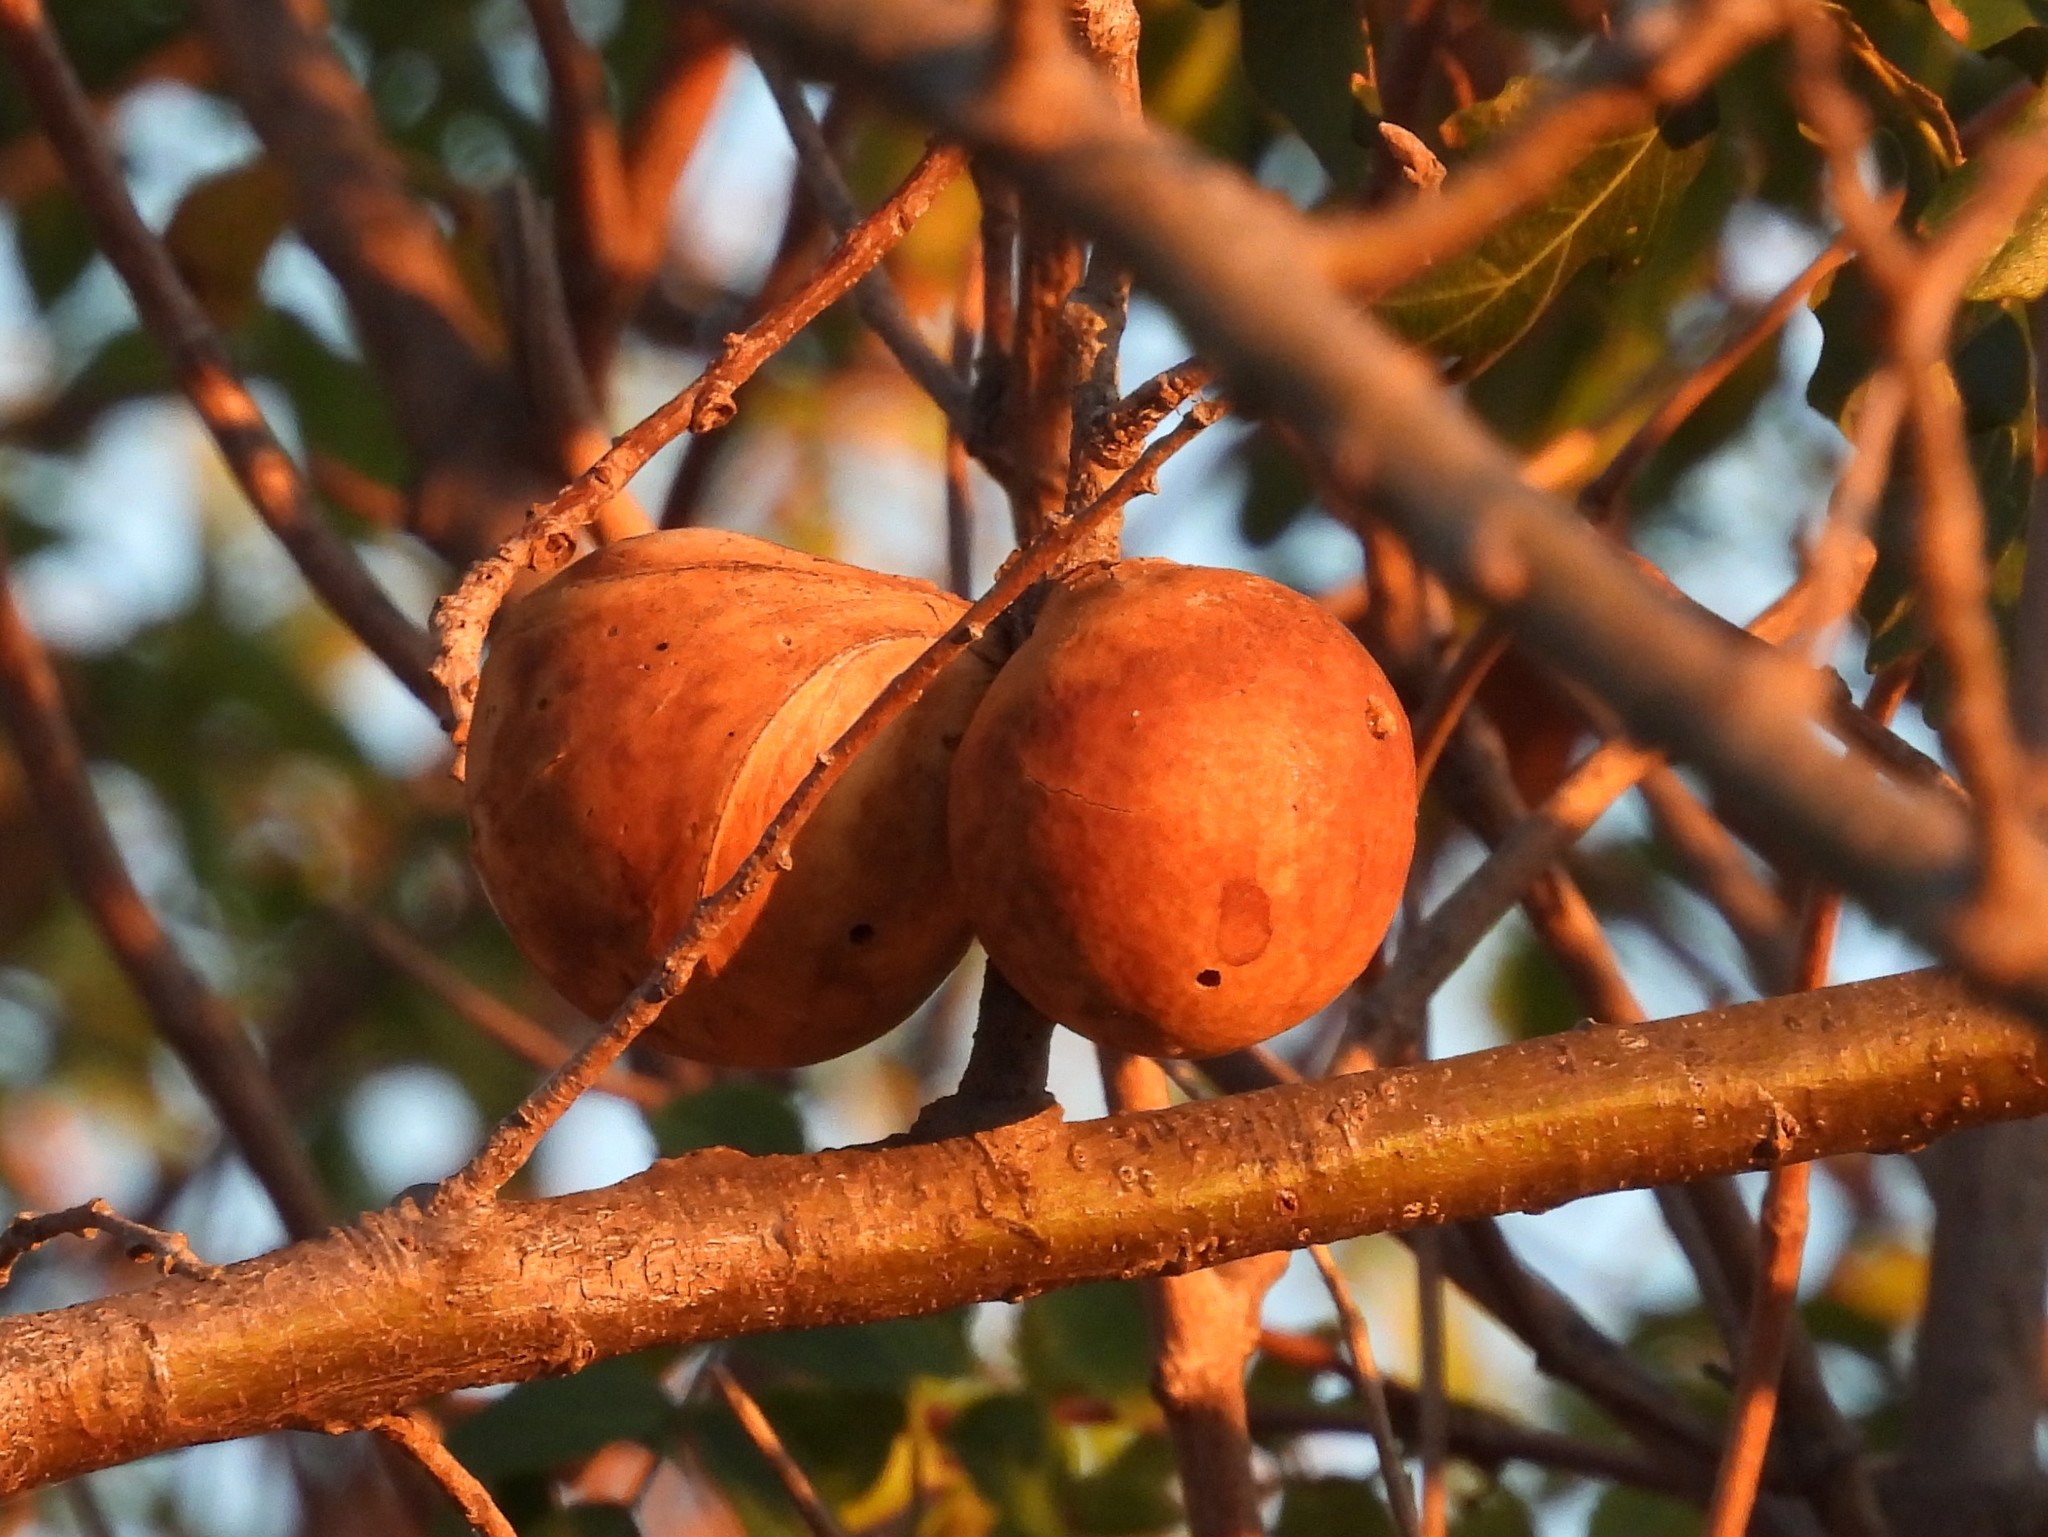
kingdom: Animalia
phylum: Arthropoda
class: Insecta
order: Hymenoptera
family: Cynipidae
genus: Andricus
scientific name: Andricus quercuscalifornicus
